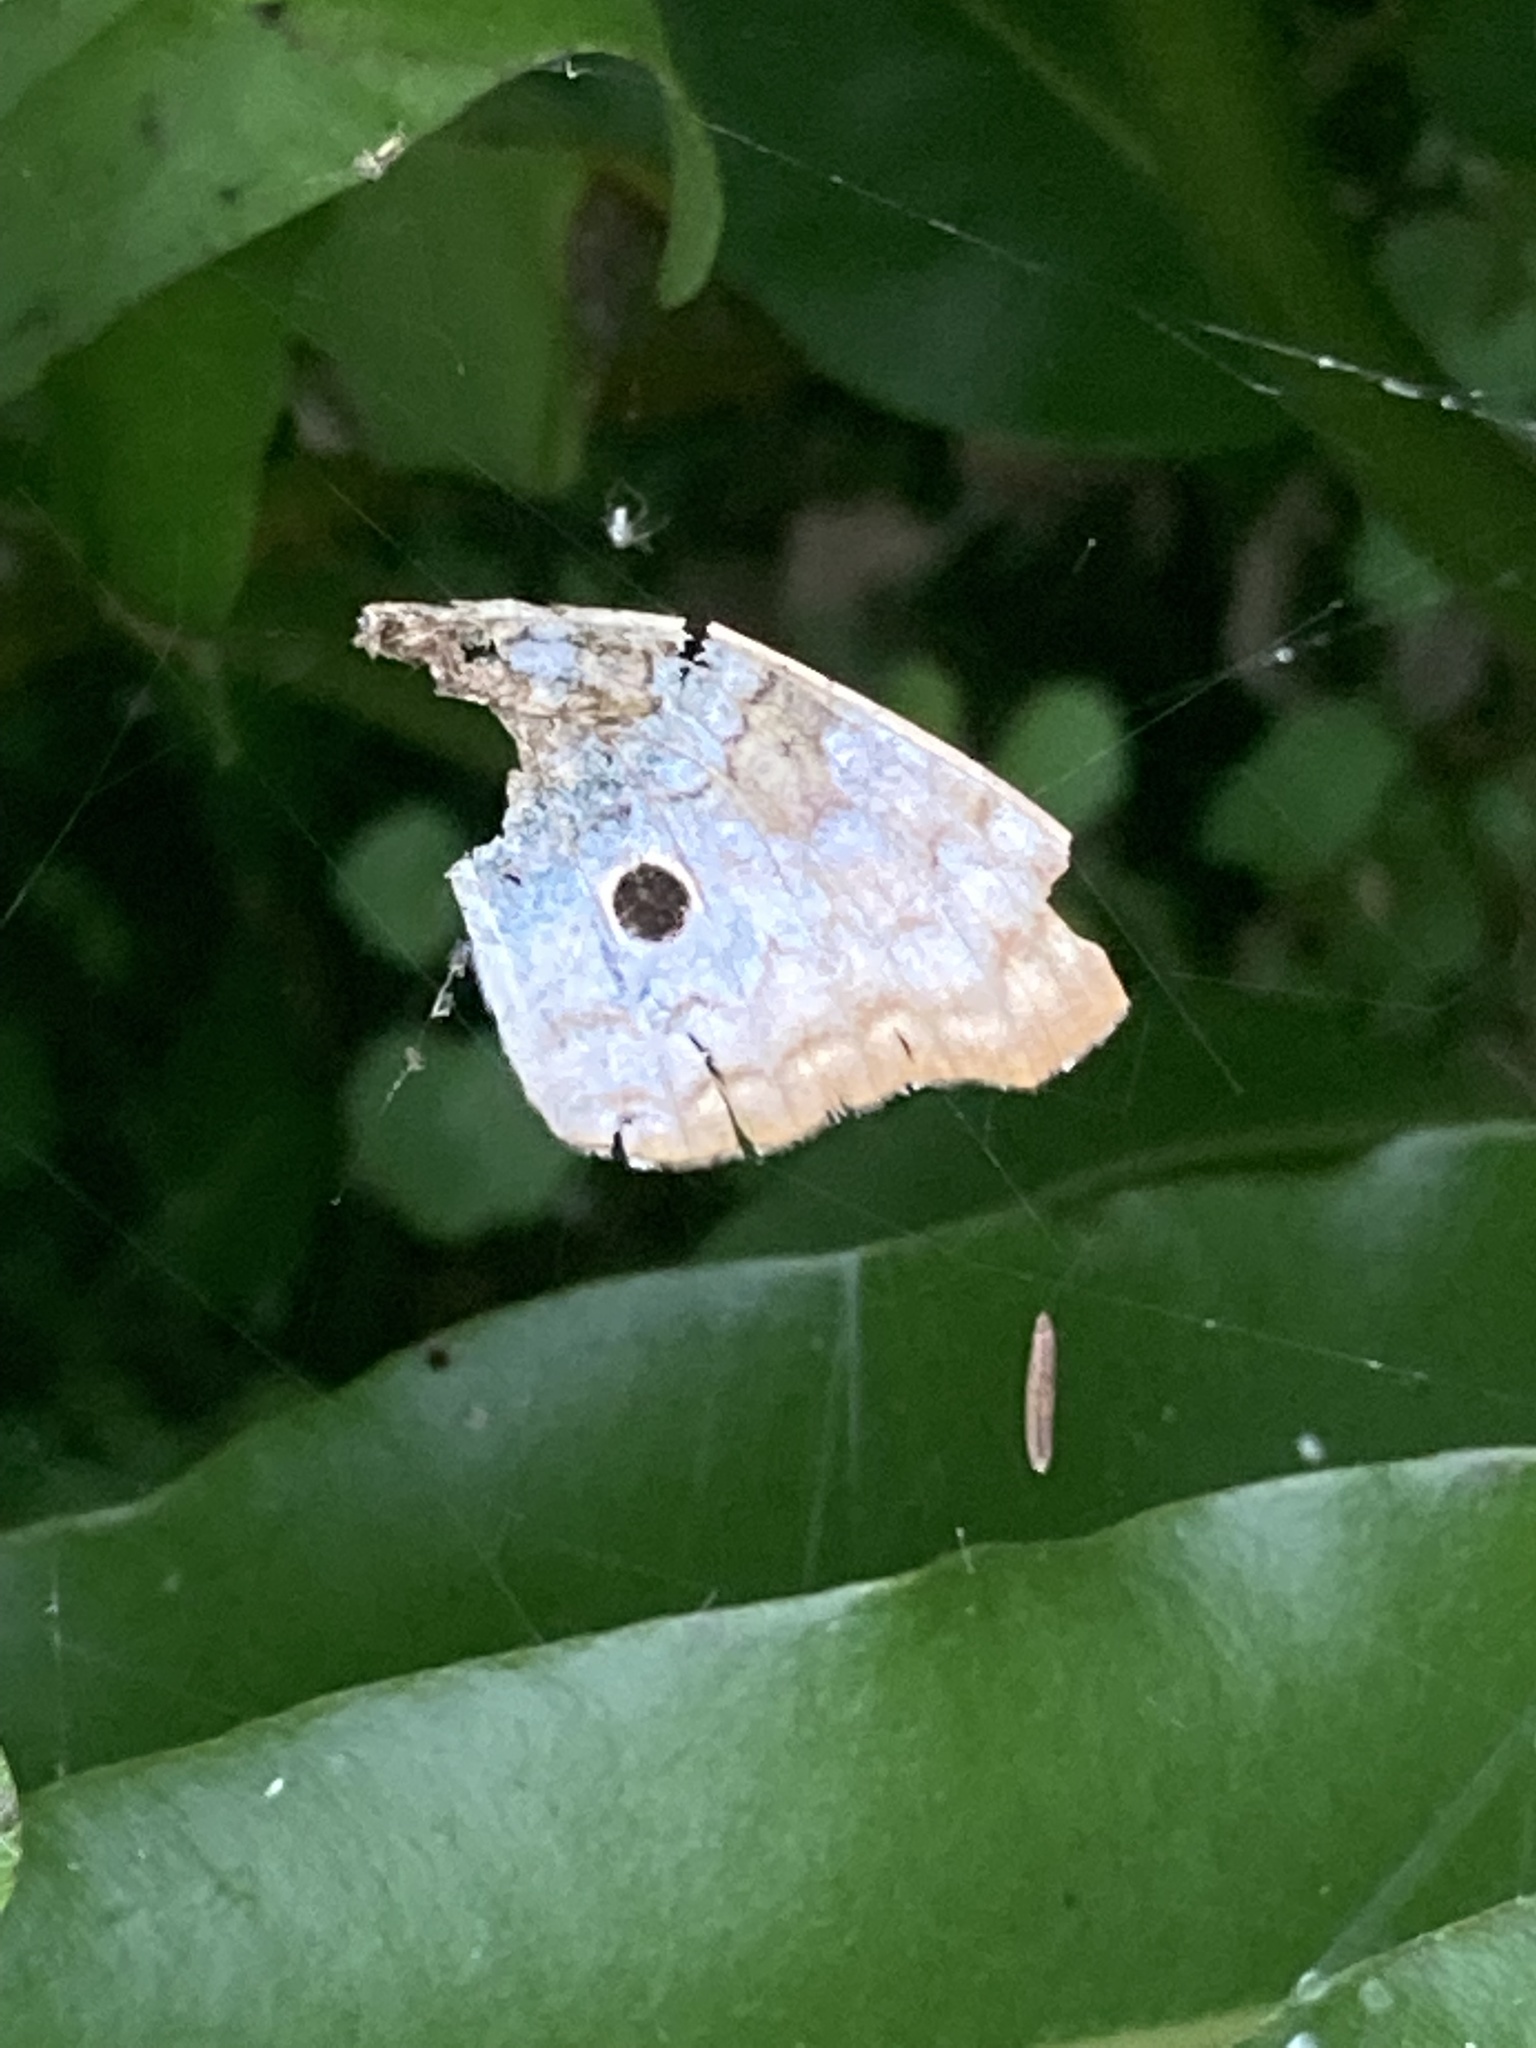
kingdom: Animalia
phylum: Arthropoda
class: Insecta
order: Lepidoptera
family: Nymphalidae
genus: Anartia
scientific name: Anartia jatrophae
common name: White peacock
